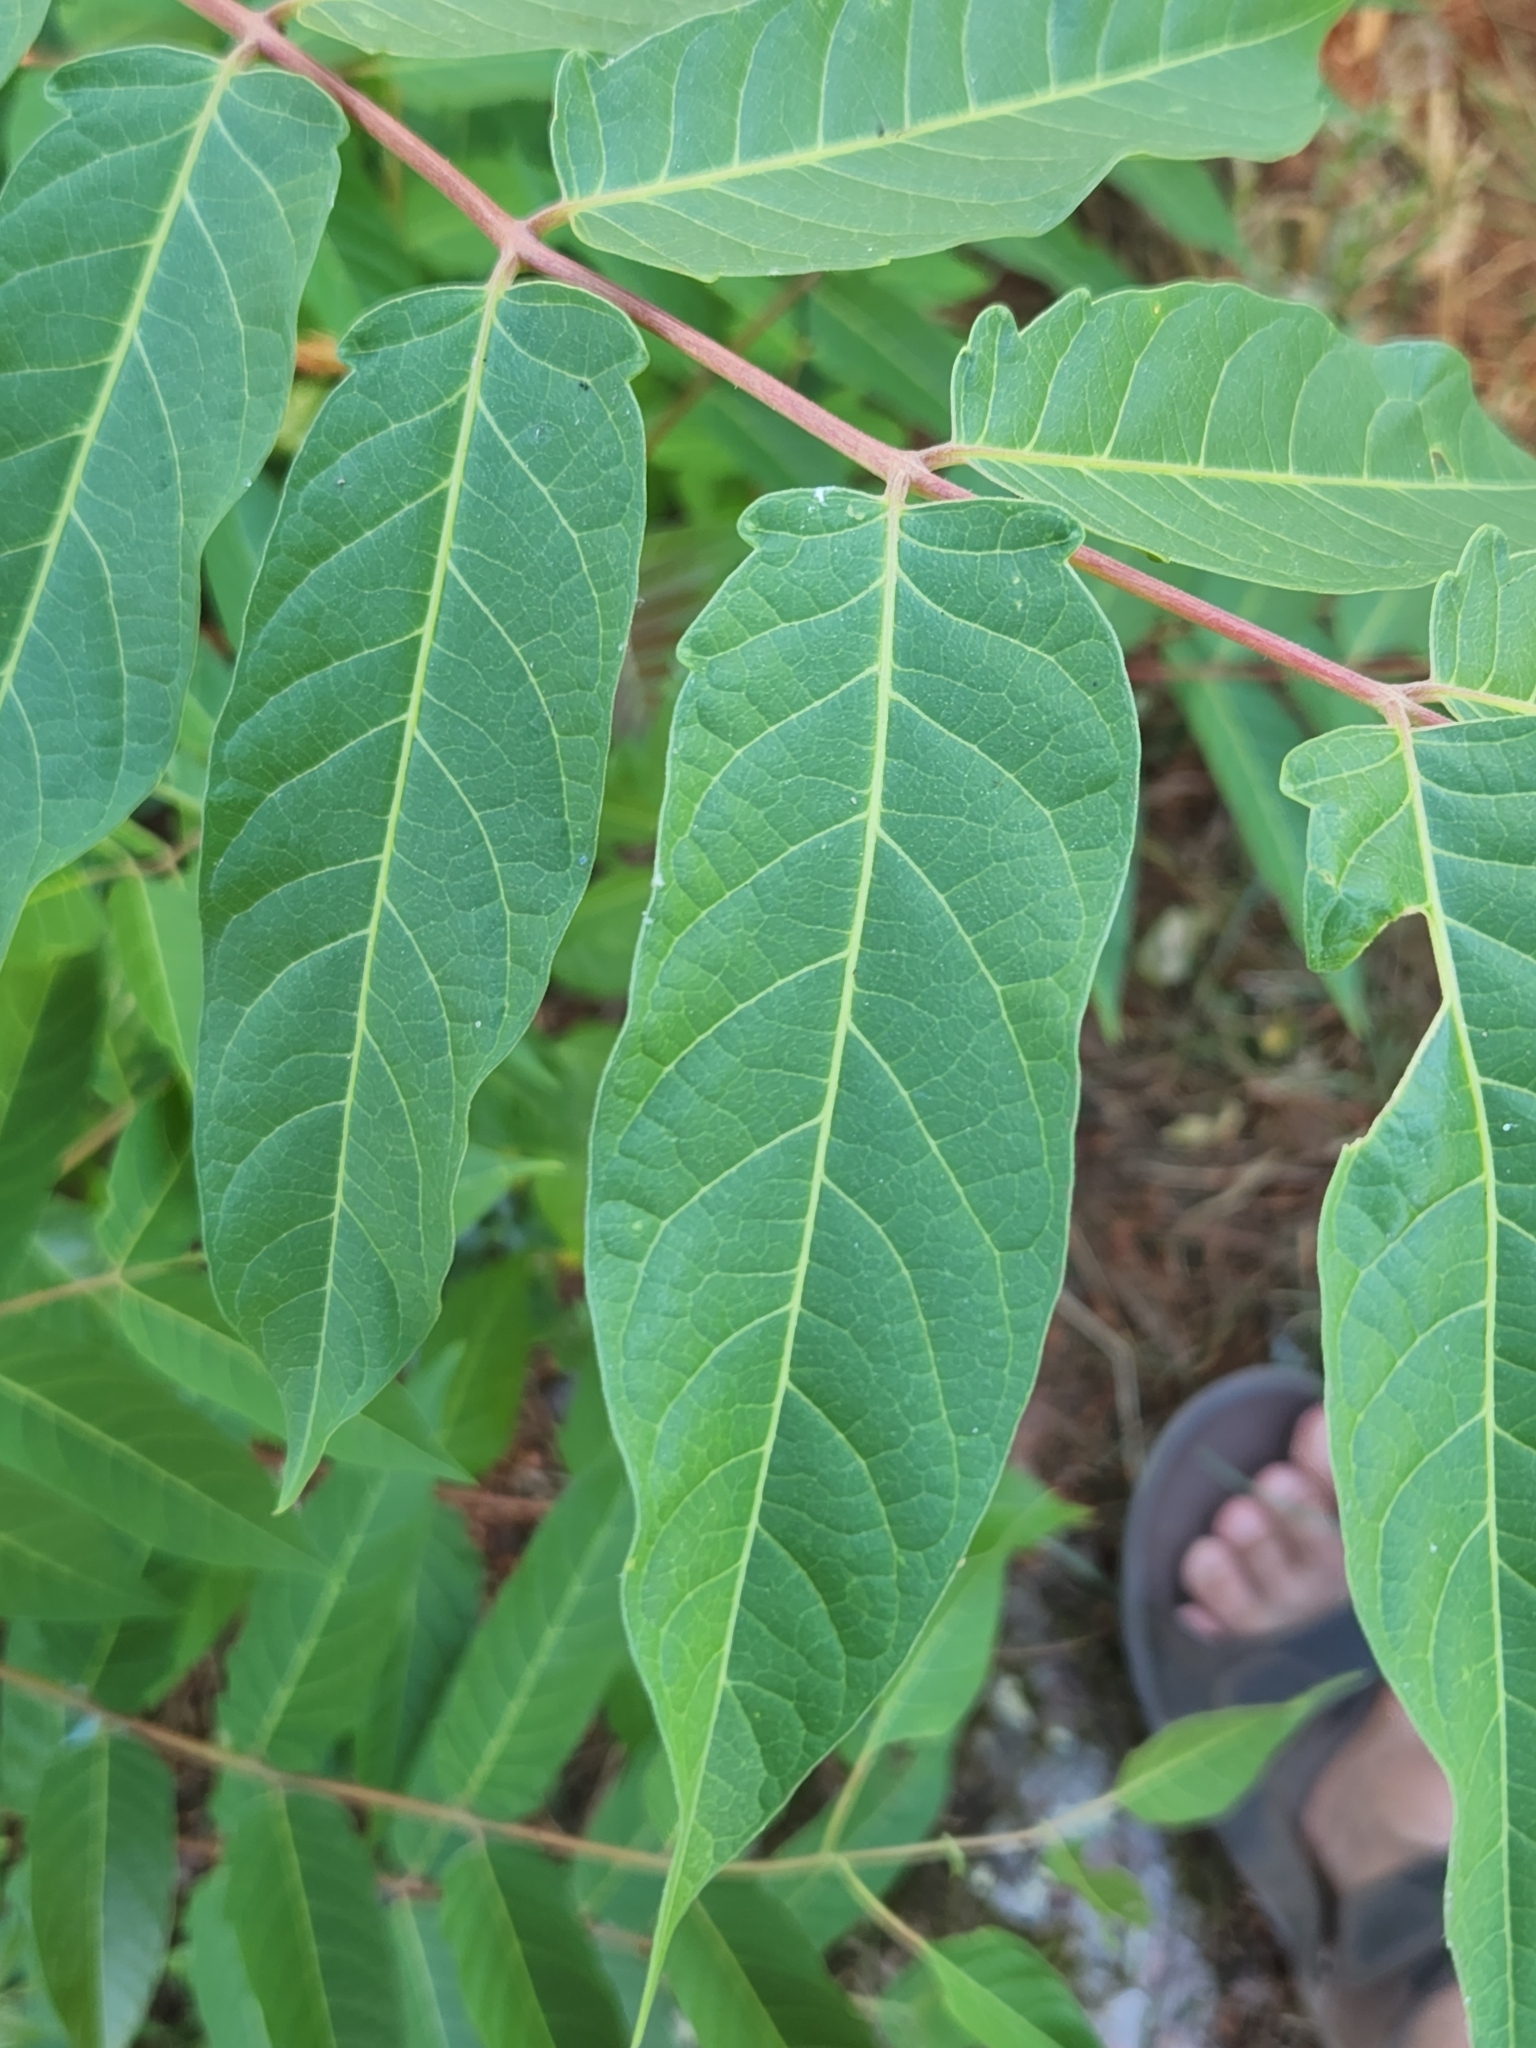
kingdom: Plantae
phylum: Tracheophyta
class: Magnoliopsida
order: Sapindales
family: Simaroubaceae
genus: Ailanthus
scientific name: Ailanthus altissima
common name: Tree-of-heaven
